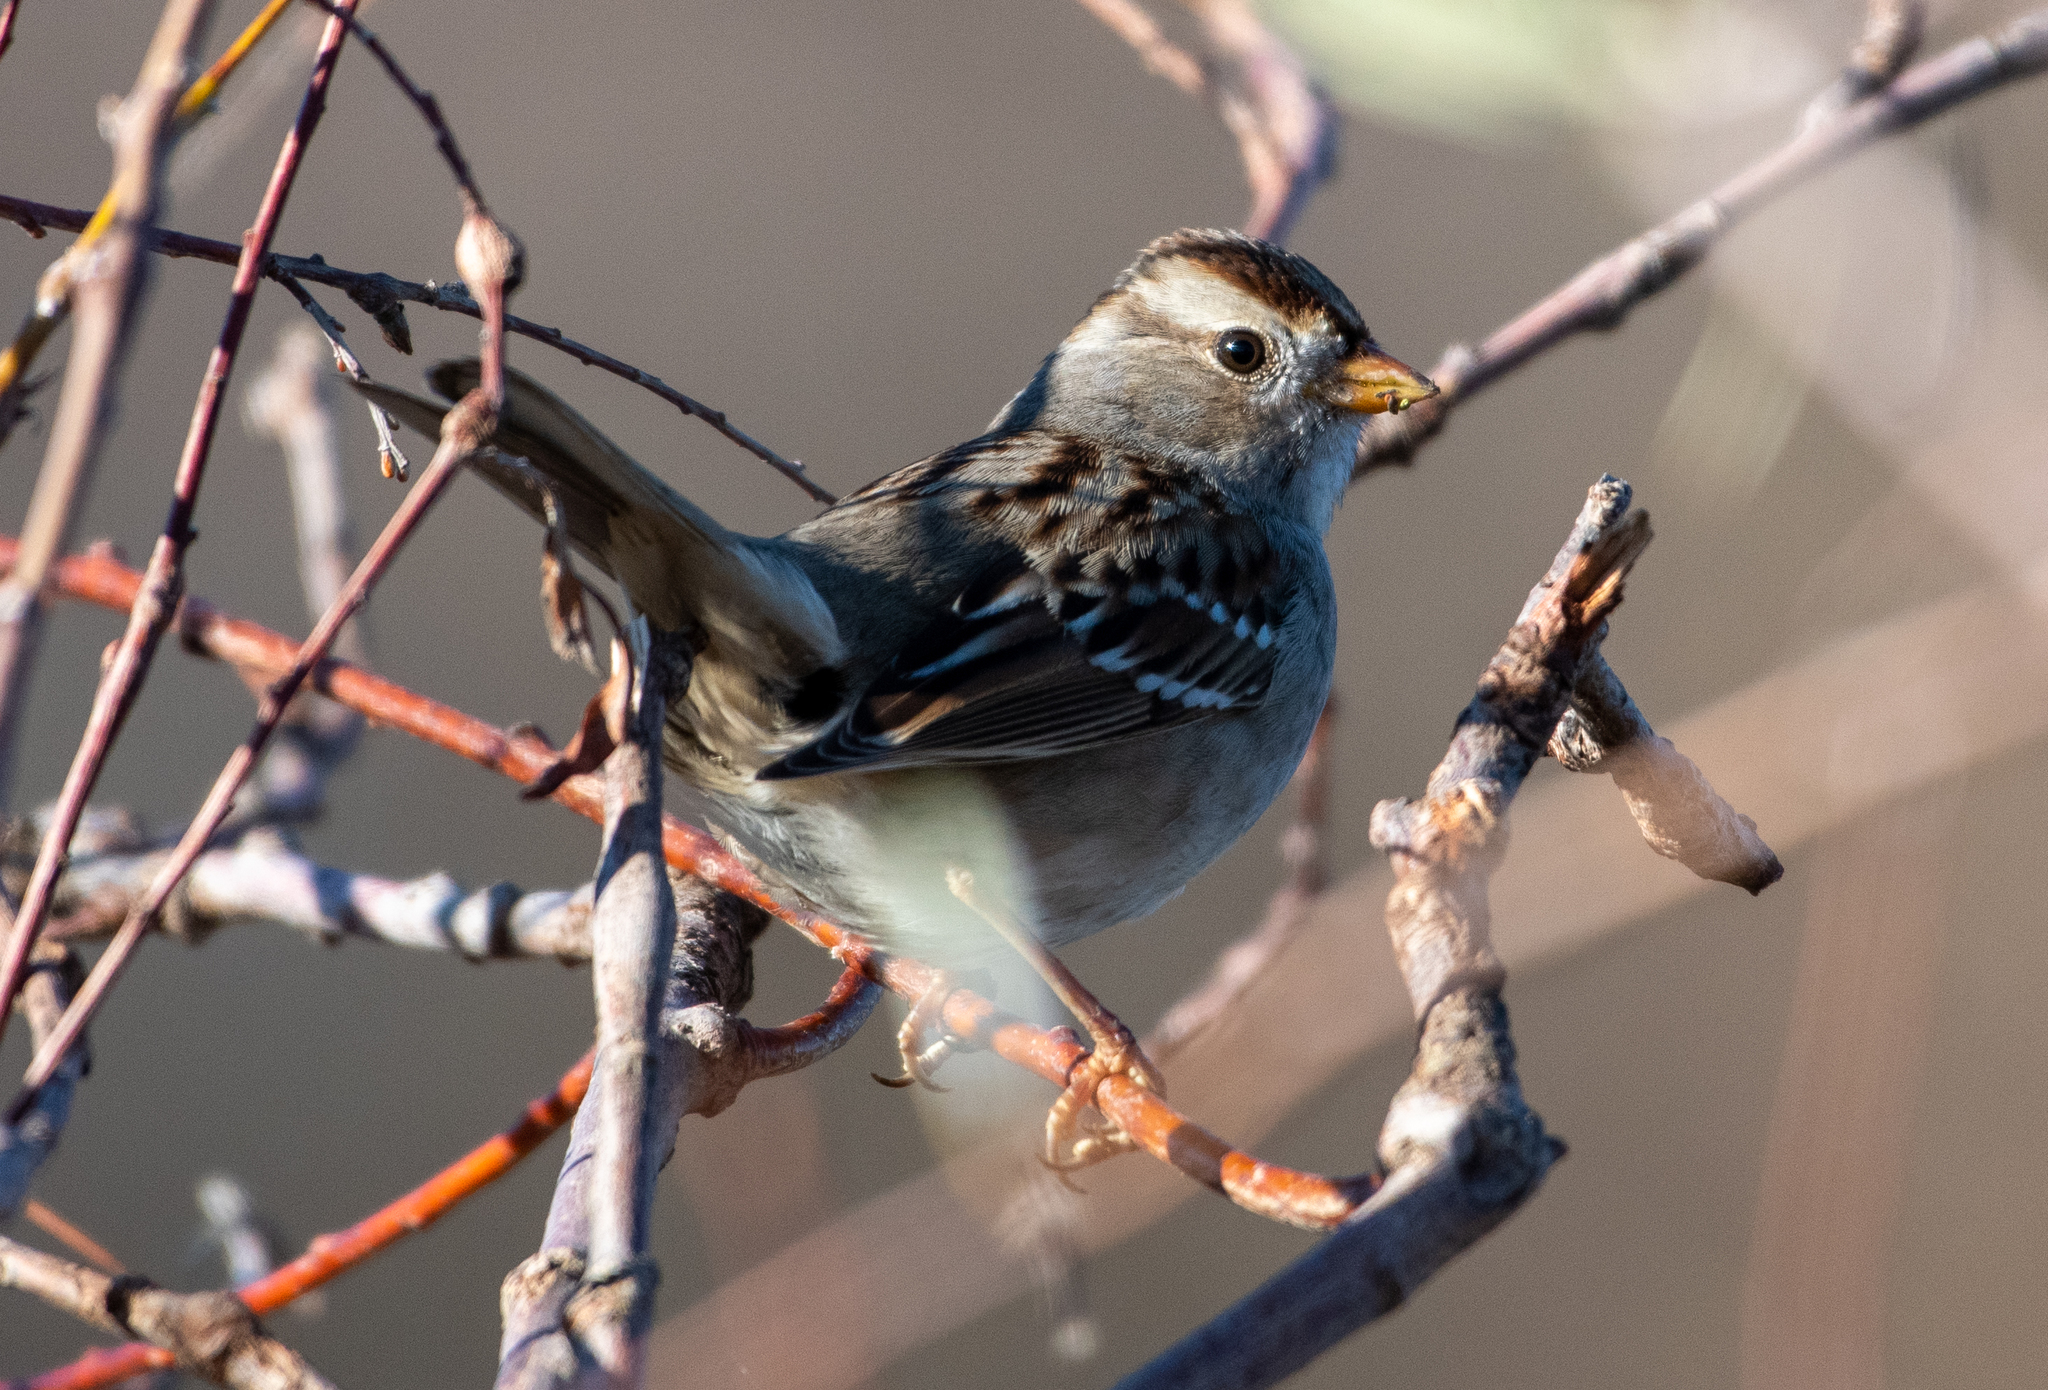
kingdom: Animalia
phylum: Chordata
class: Aves
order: Passeriformes
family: Passerellidae
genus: Zonotrichia
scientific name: Zonotrichia leucophrys
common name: White-crowned sparrow
